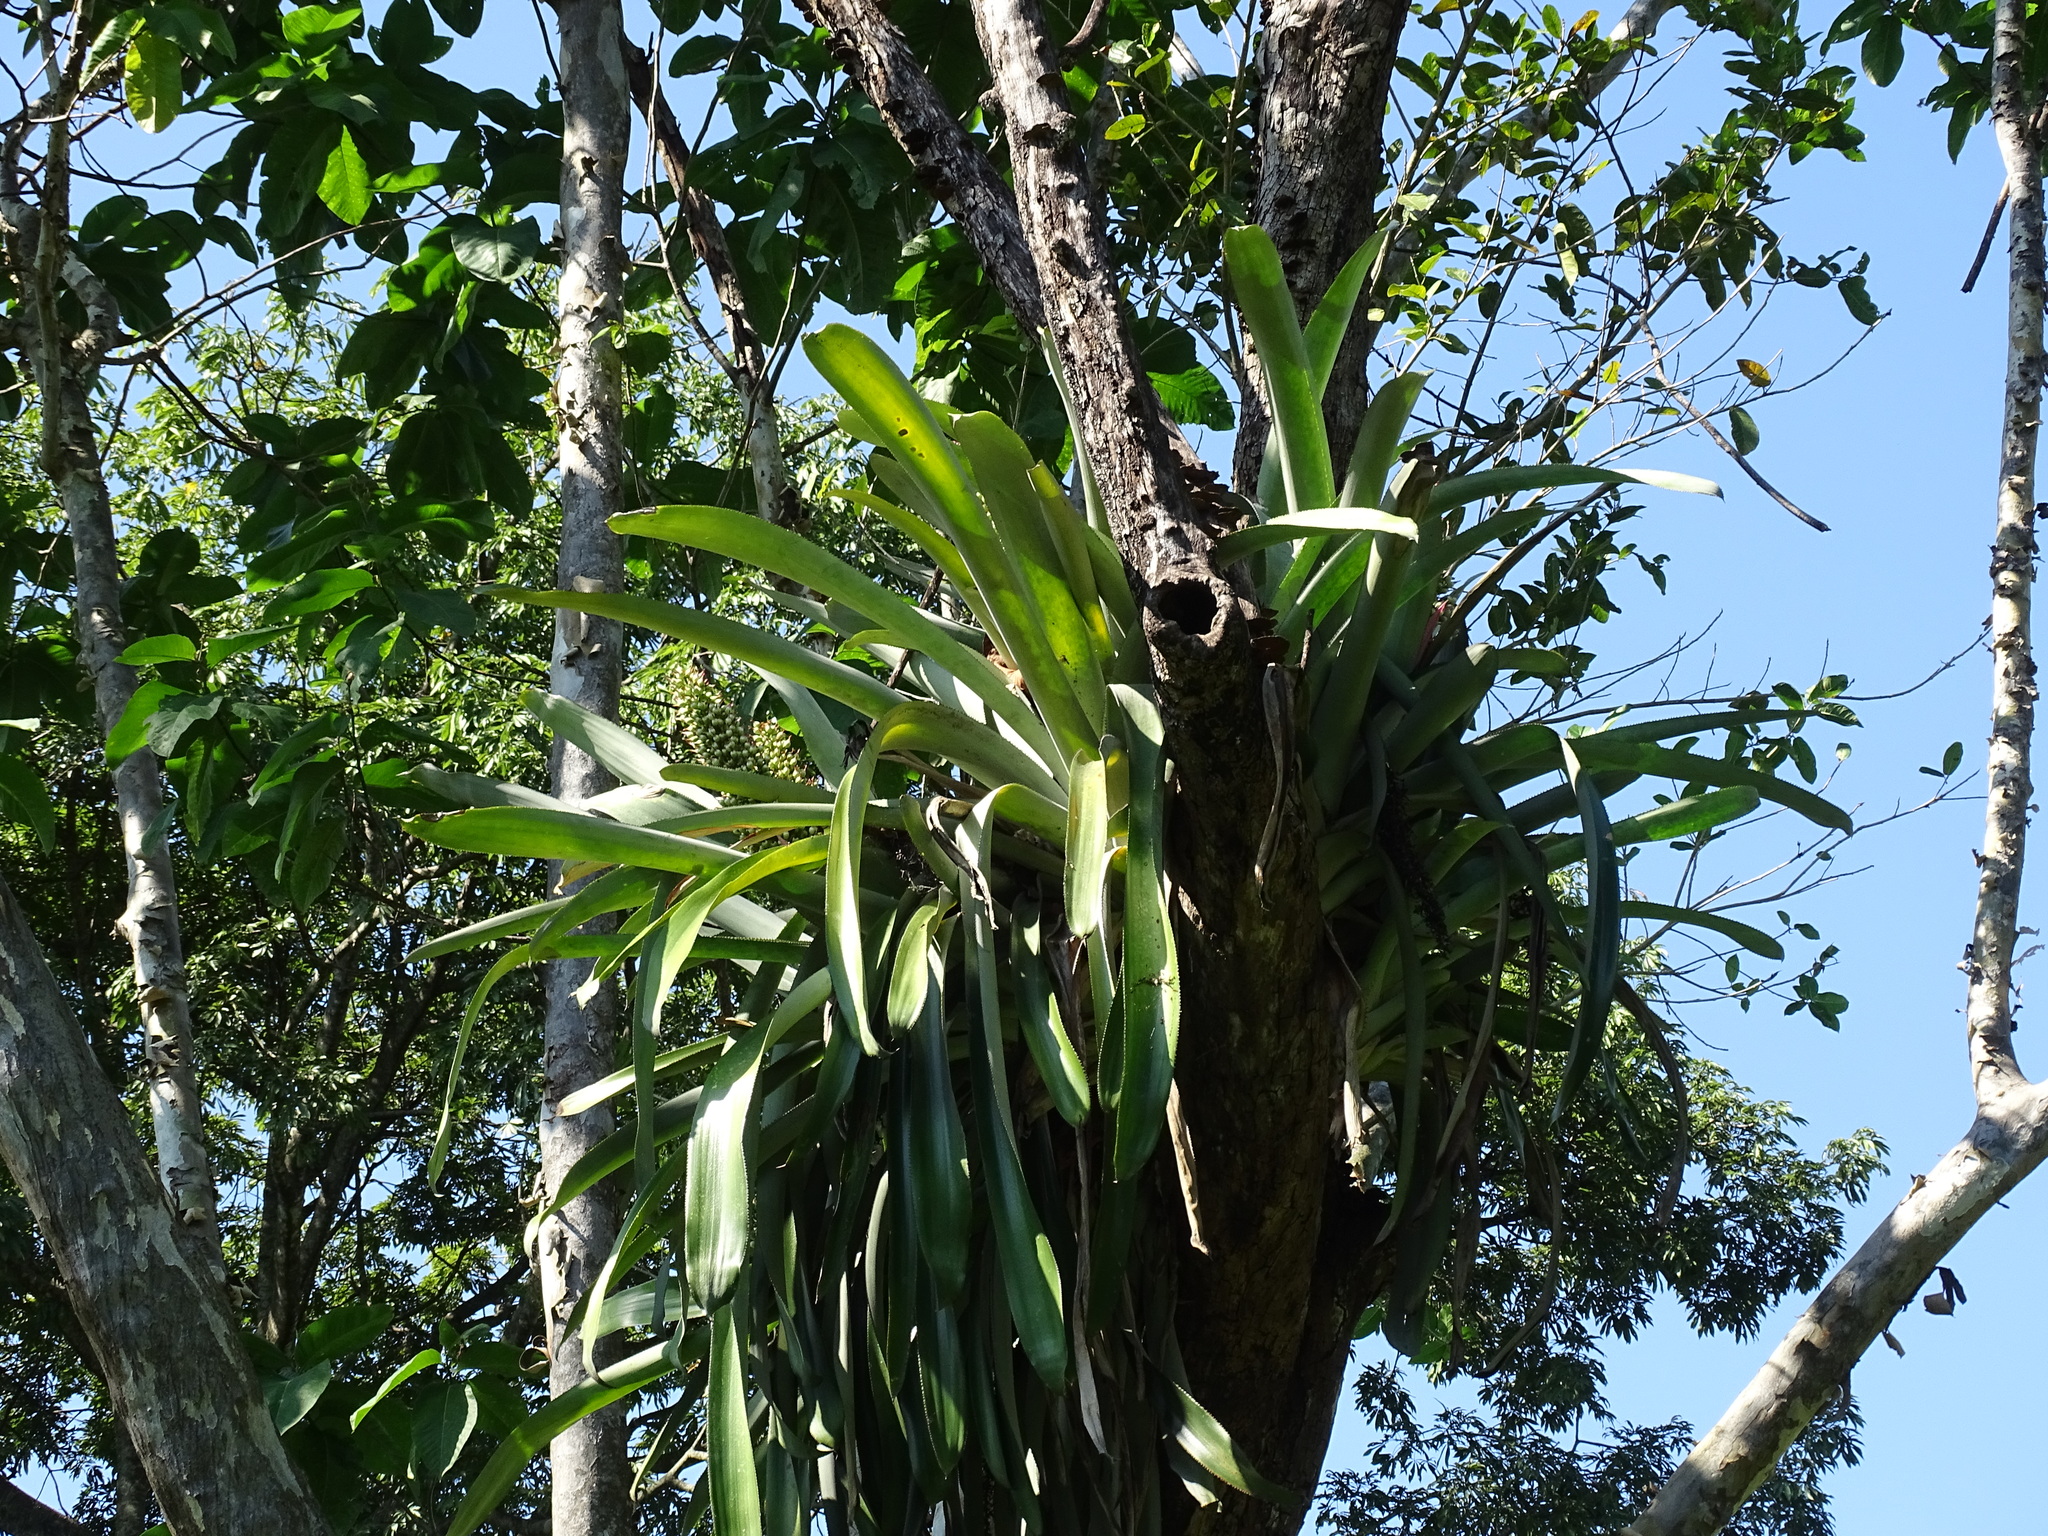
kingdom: Plantae
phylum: Tracheophyta
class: Liliopsida
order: Poales
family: Bromeliaceae
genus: Aechmea
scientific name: Aechmea matudae
